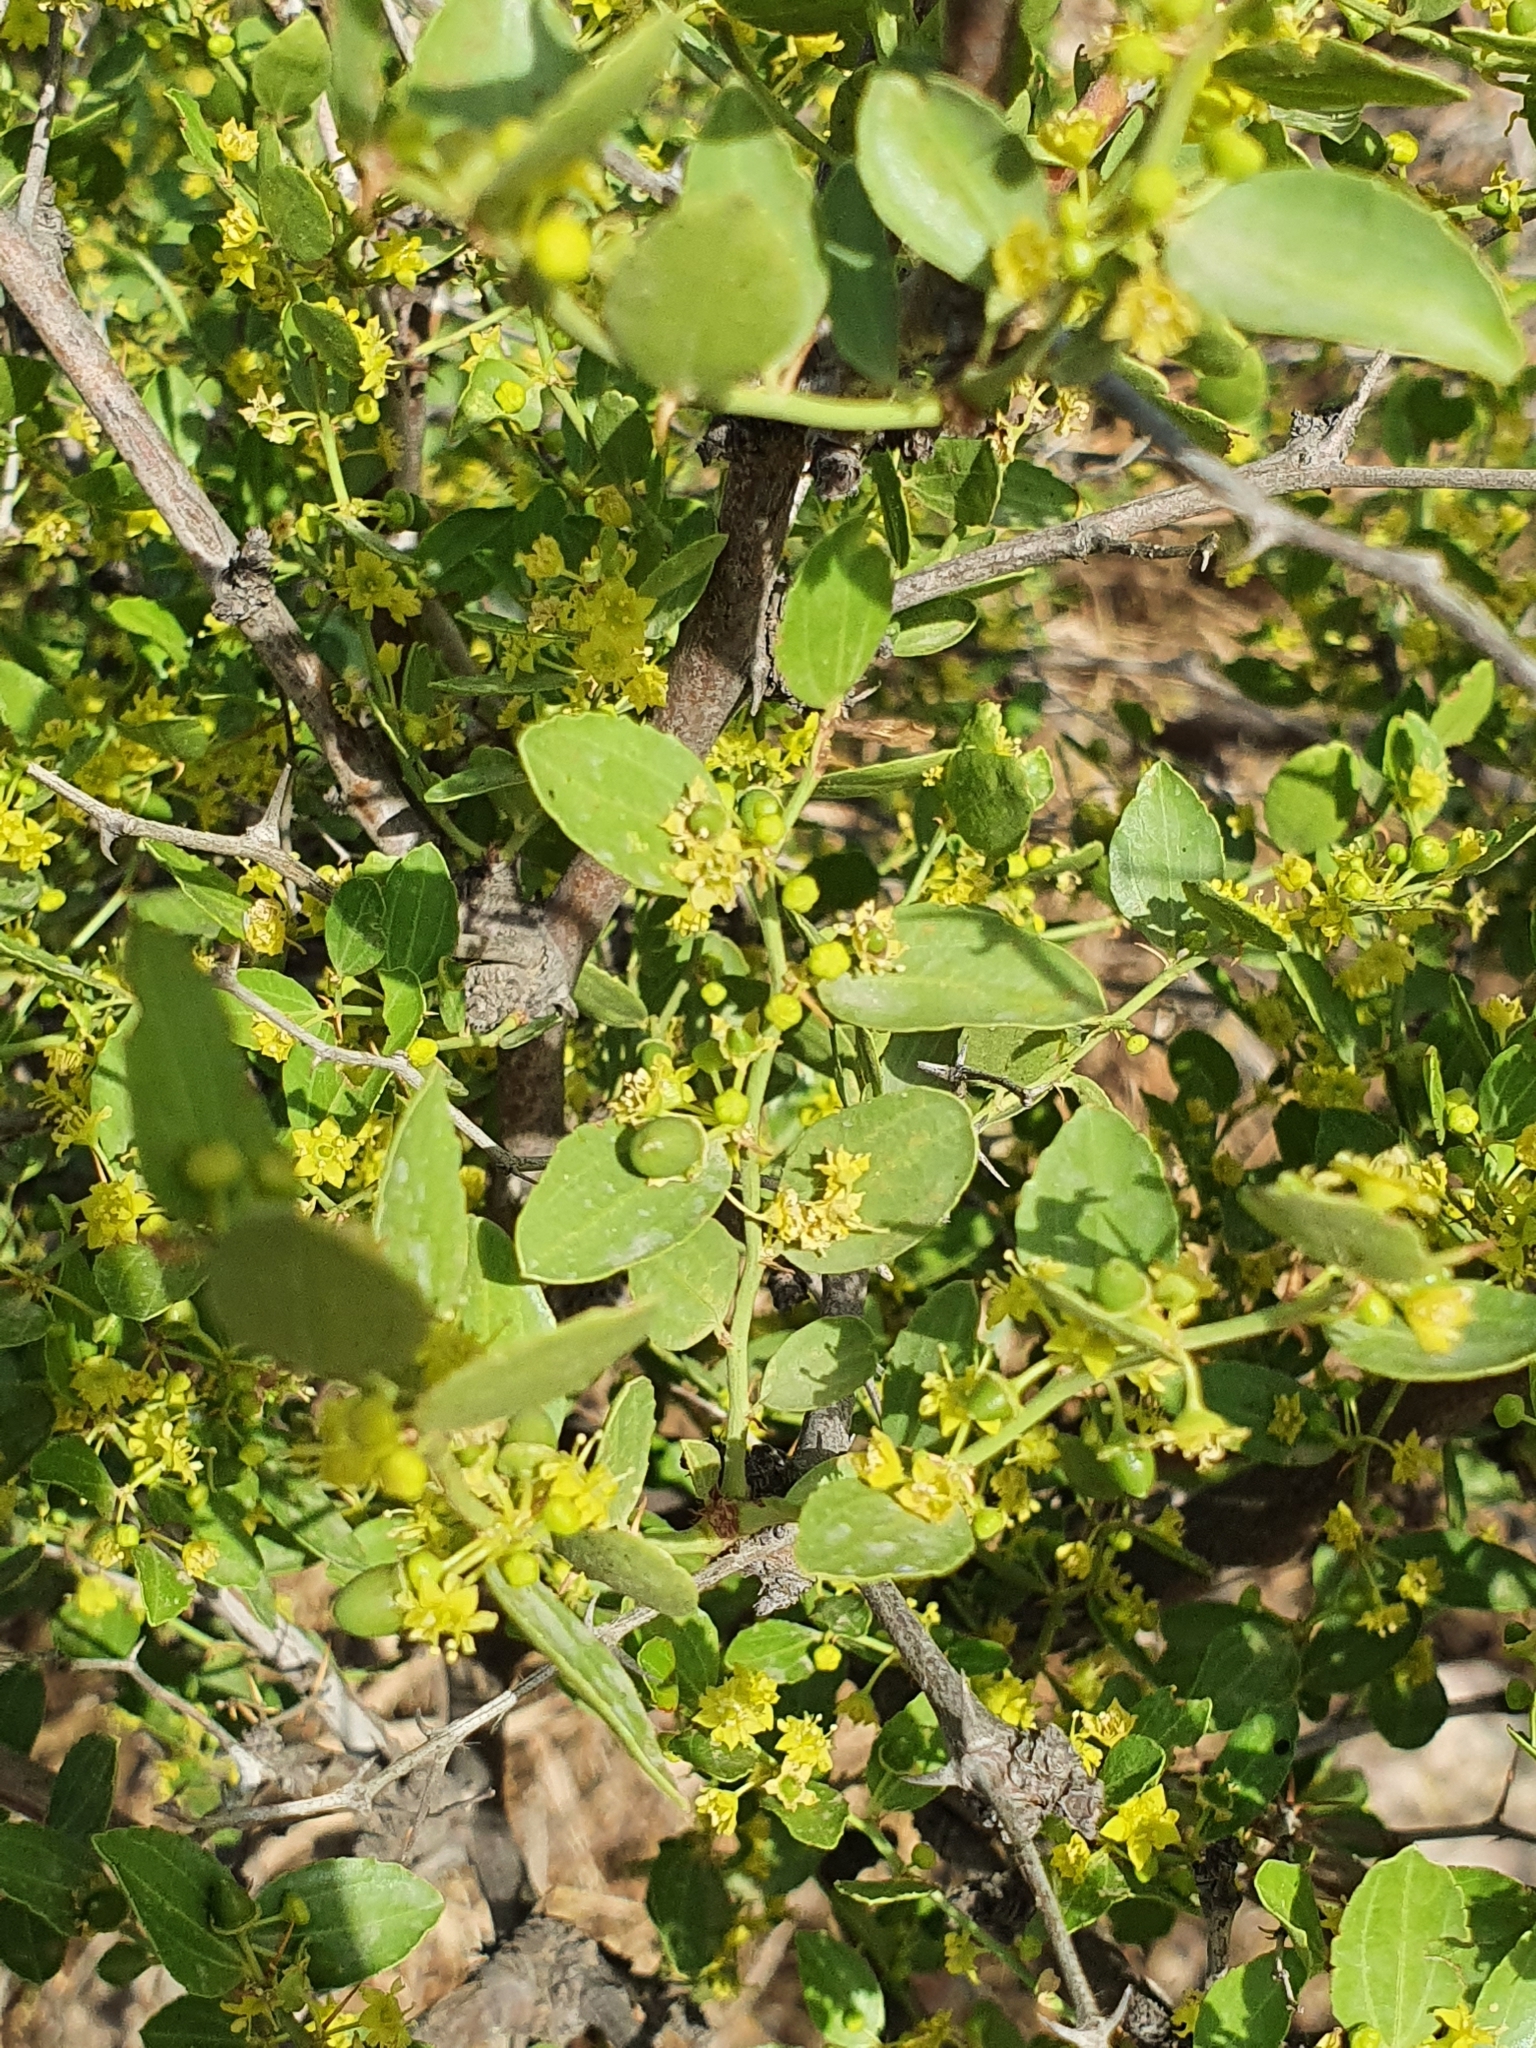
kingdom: Plantae
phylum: Tracheophyta
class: Magnoliopsida
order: Rosales
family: Rhamnaceae
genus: Ziziphus
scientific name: Ziziphus lotus
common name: Lotus
